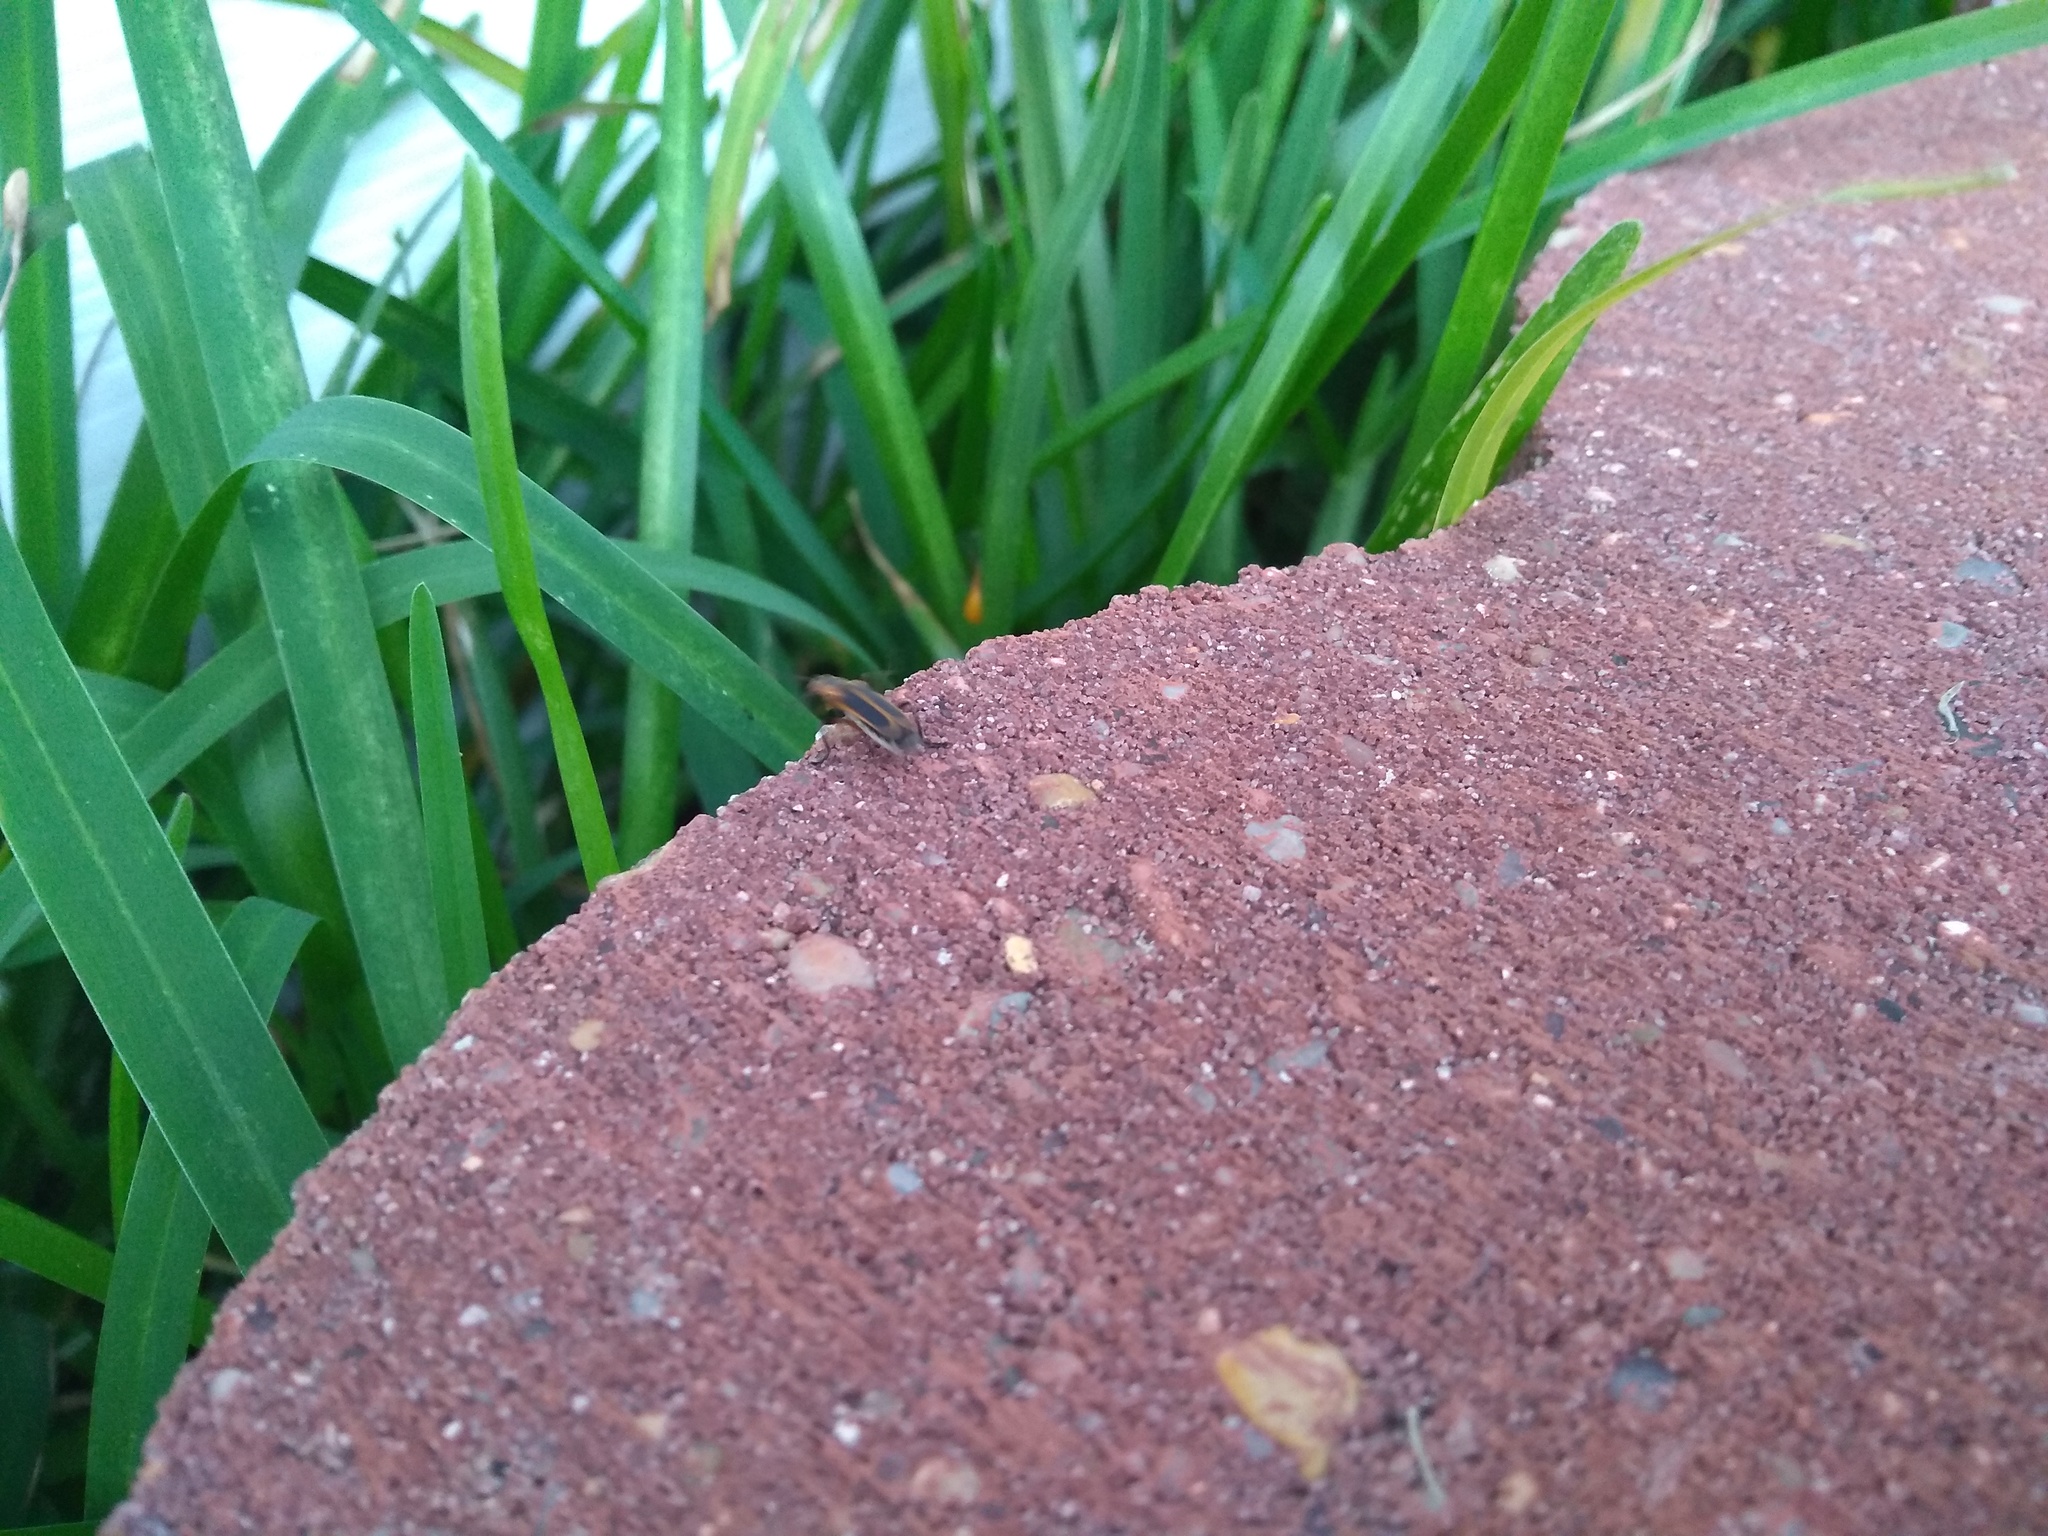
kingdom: Animalia
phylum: Arthropoda
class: Insecta
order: Coleoptera
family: Cantharidae
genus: Chauliognathus
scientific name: Chauliognathus marginatus
